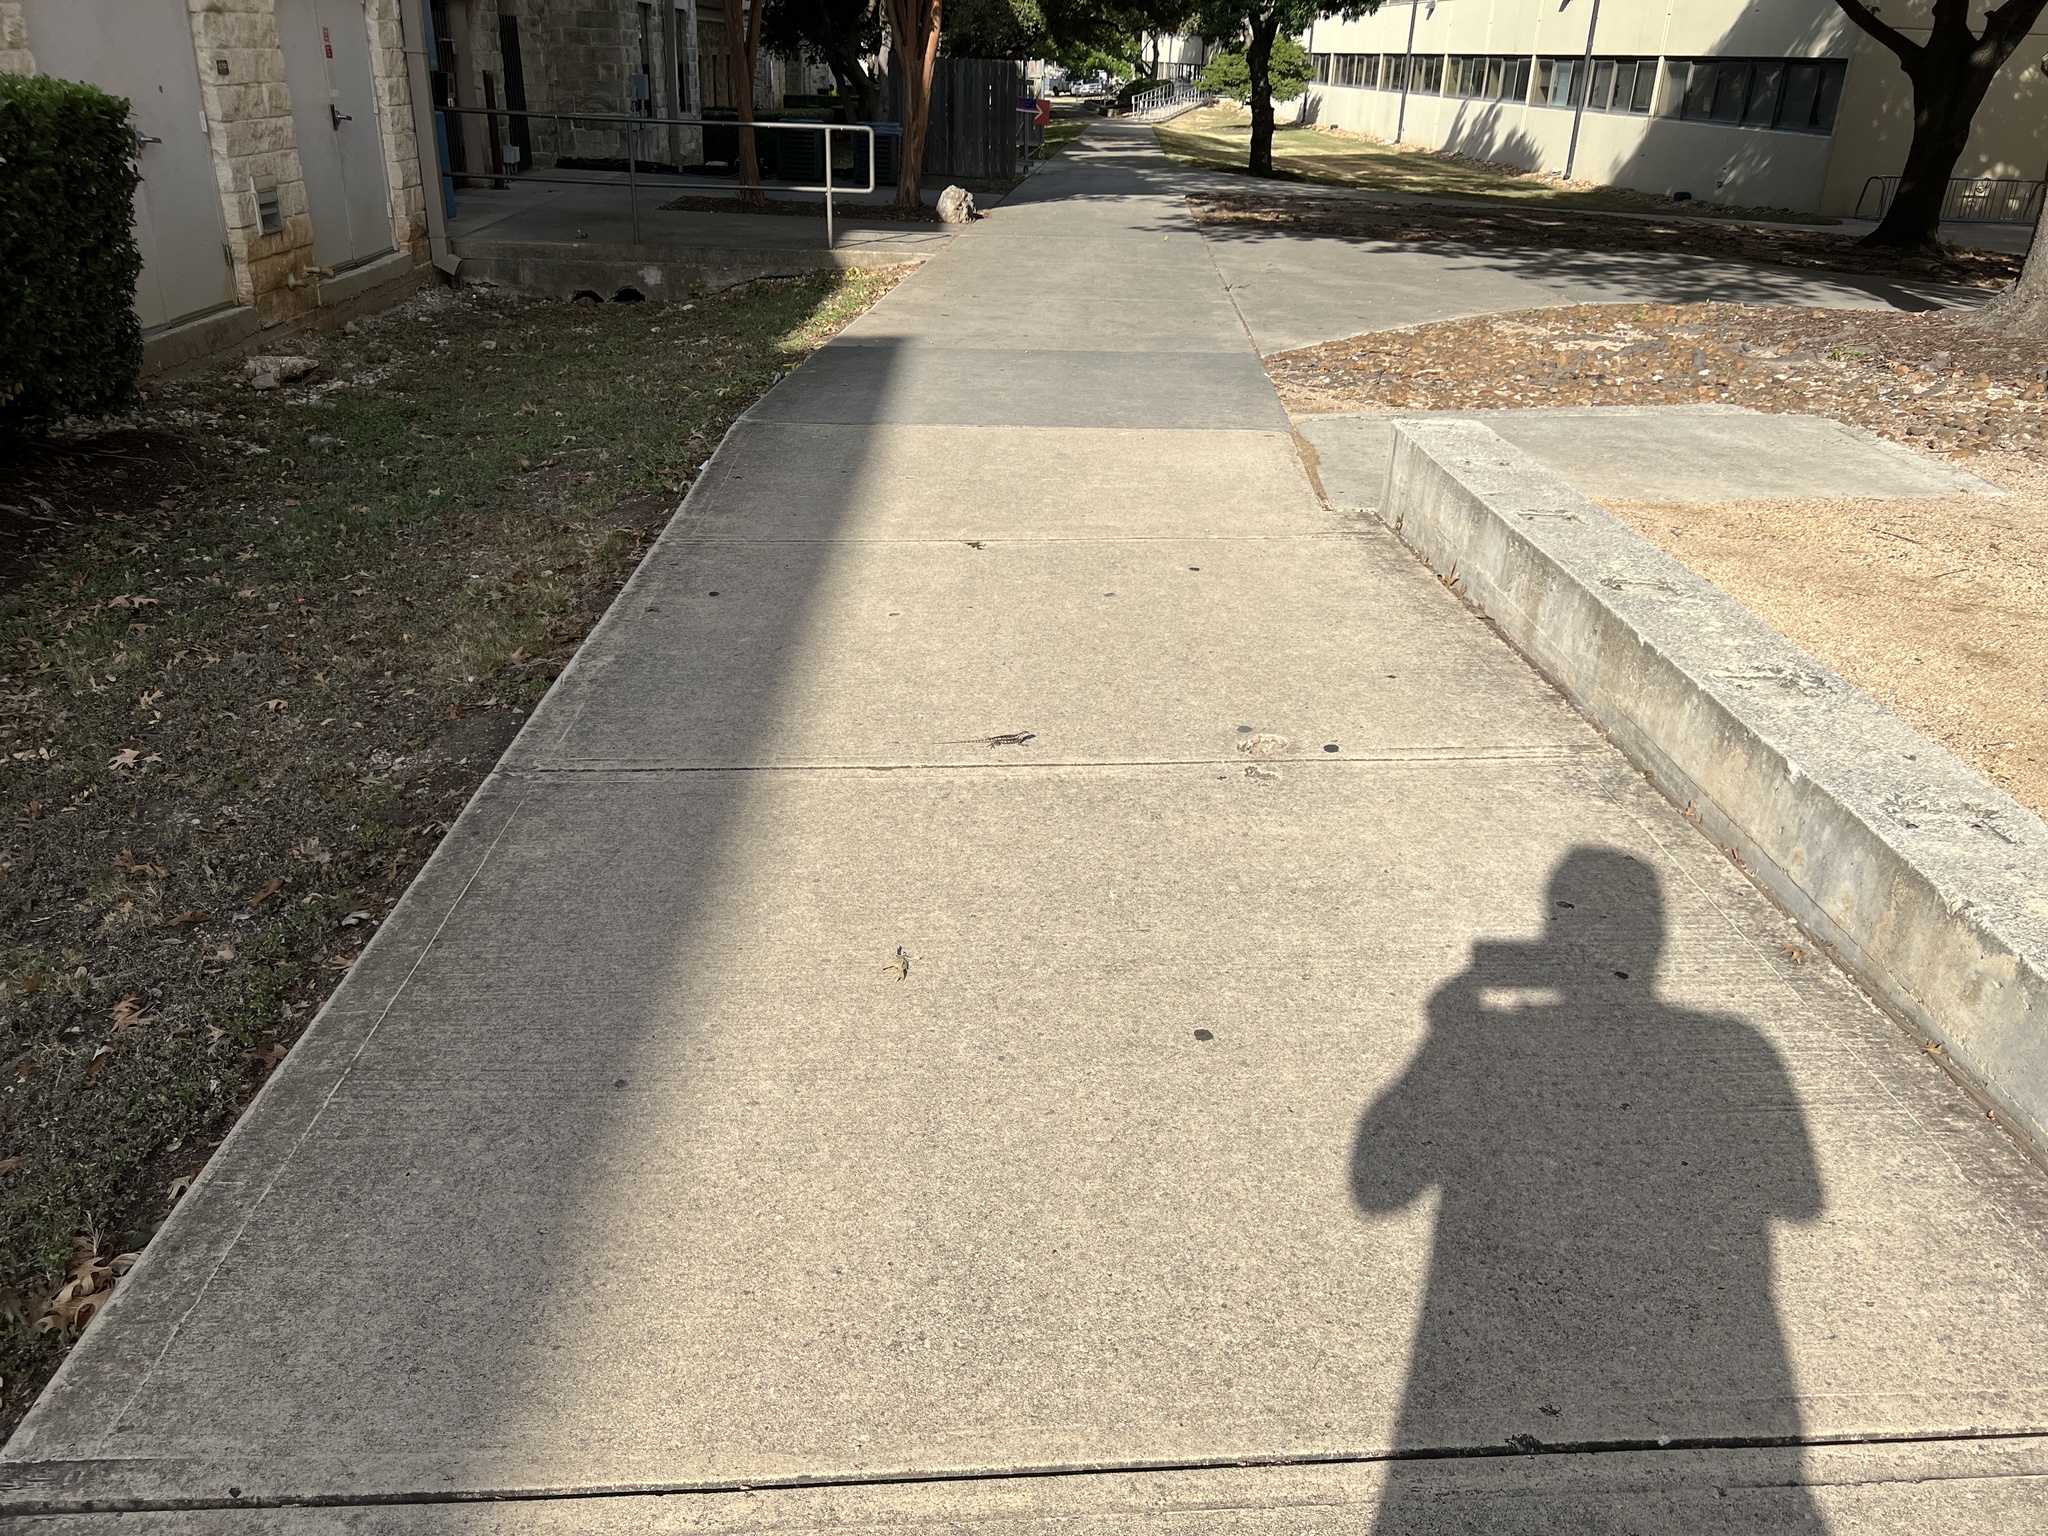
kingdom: Animalia
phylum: Chordata
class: Squamata
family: Phrynosomatidae
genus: Sceloporus
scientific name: Sceloporus olivaceus
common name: Texas spiny lizard
